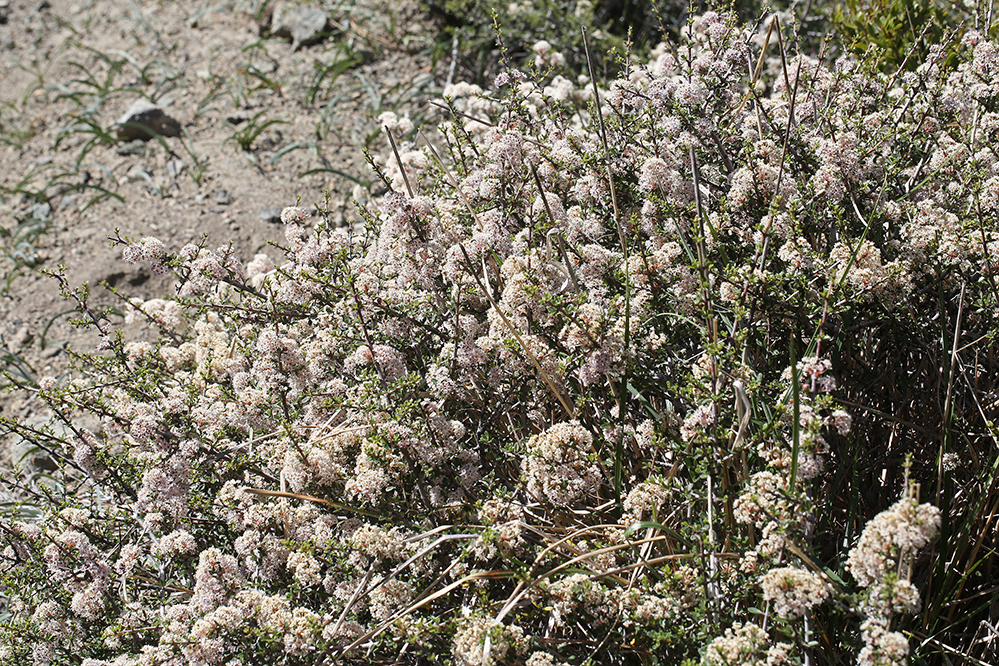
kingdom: Plantae
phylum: Tracheophyta
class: Magnoliopsida
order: Rosales
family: Rhamnaceae
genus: Ceanothus
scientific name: Ceanothus arcuatus
